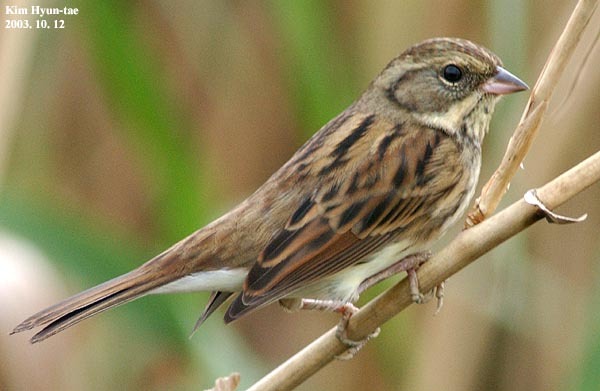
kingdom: Animalia
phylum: Chordata
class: Aves
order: Passeriformes
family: Emberizidae
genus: Emberiza
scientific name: Emberiza spodocephala
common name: Black-faced bunting
